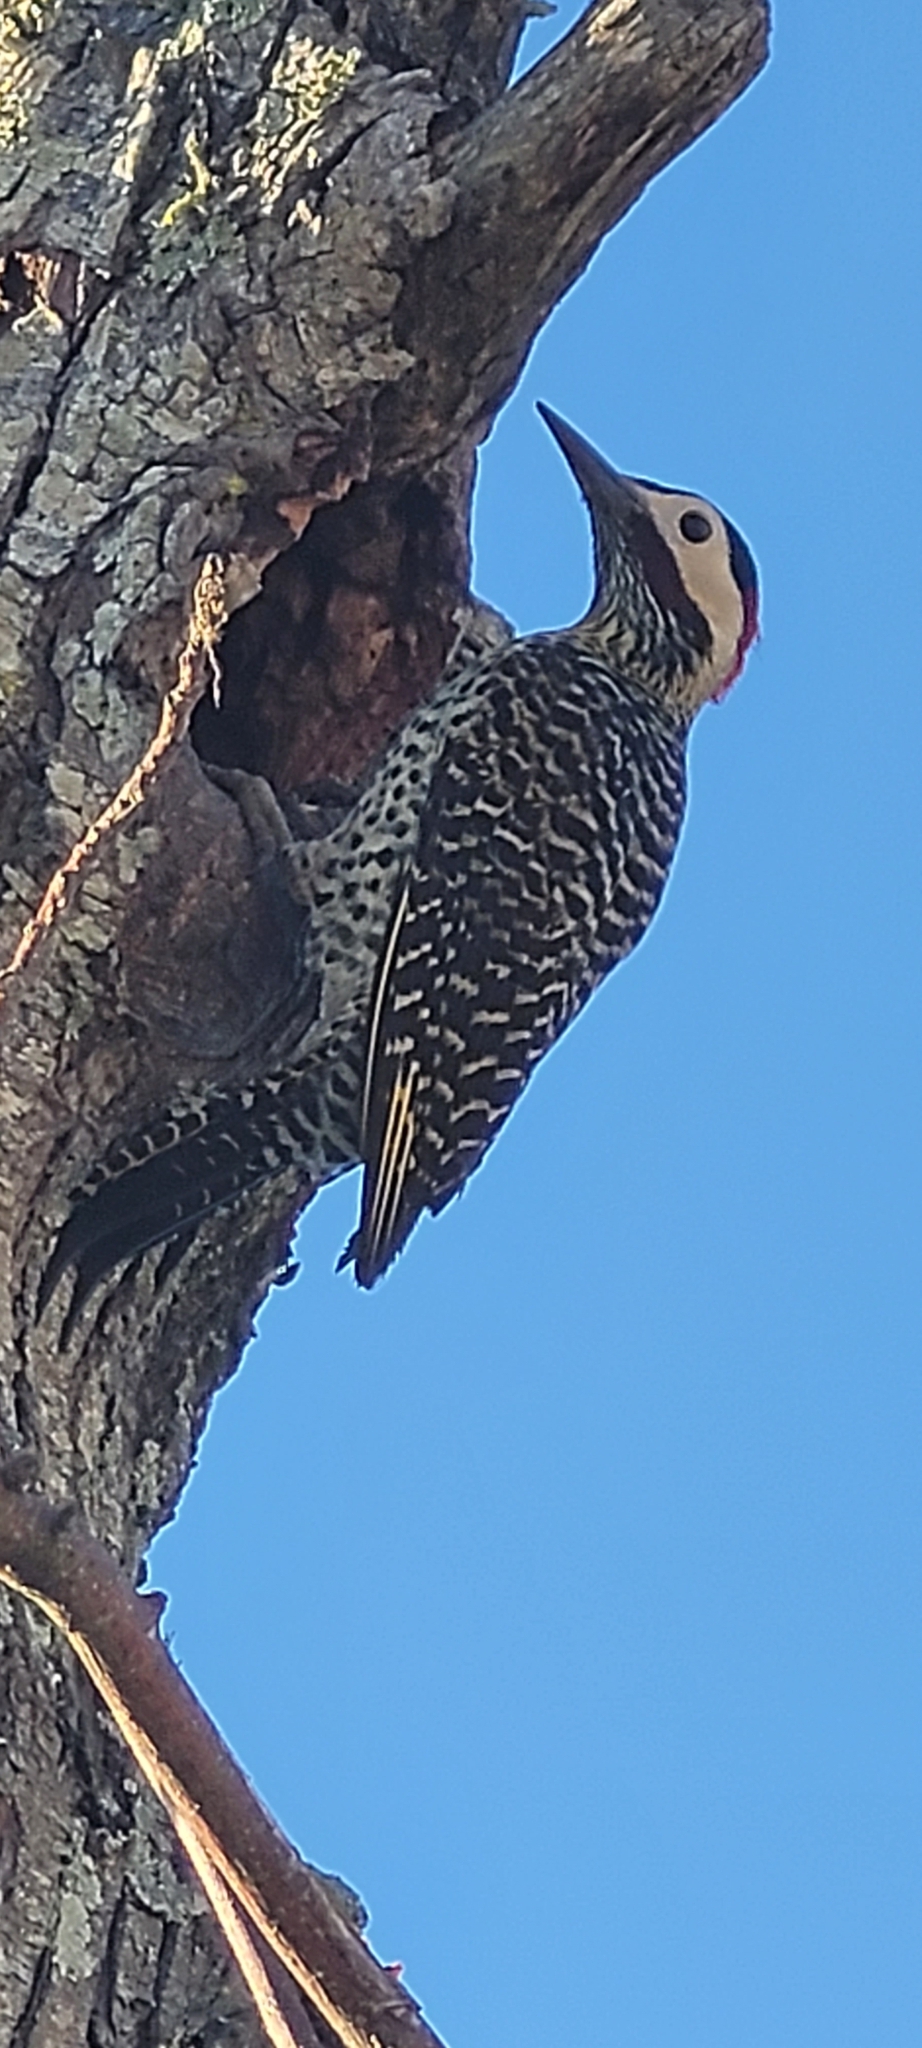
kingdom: Animalia
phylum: Chordata
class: Aves
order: Piciformes
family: Picidae
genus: Colaptes
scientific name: Colaptes melanochloros
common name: Green-barred woodpecker
